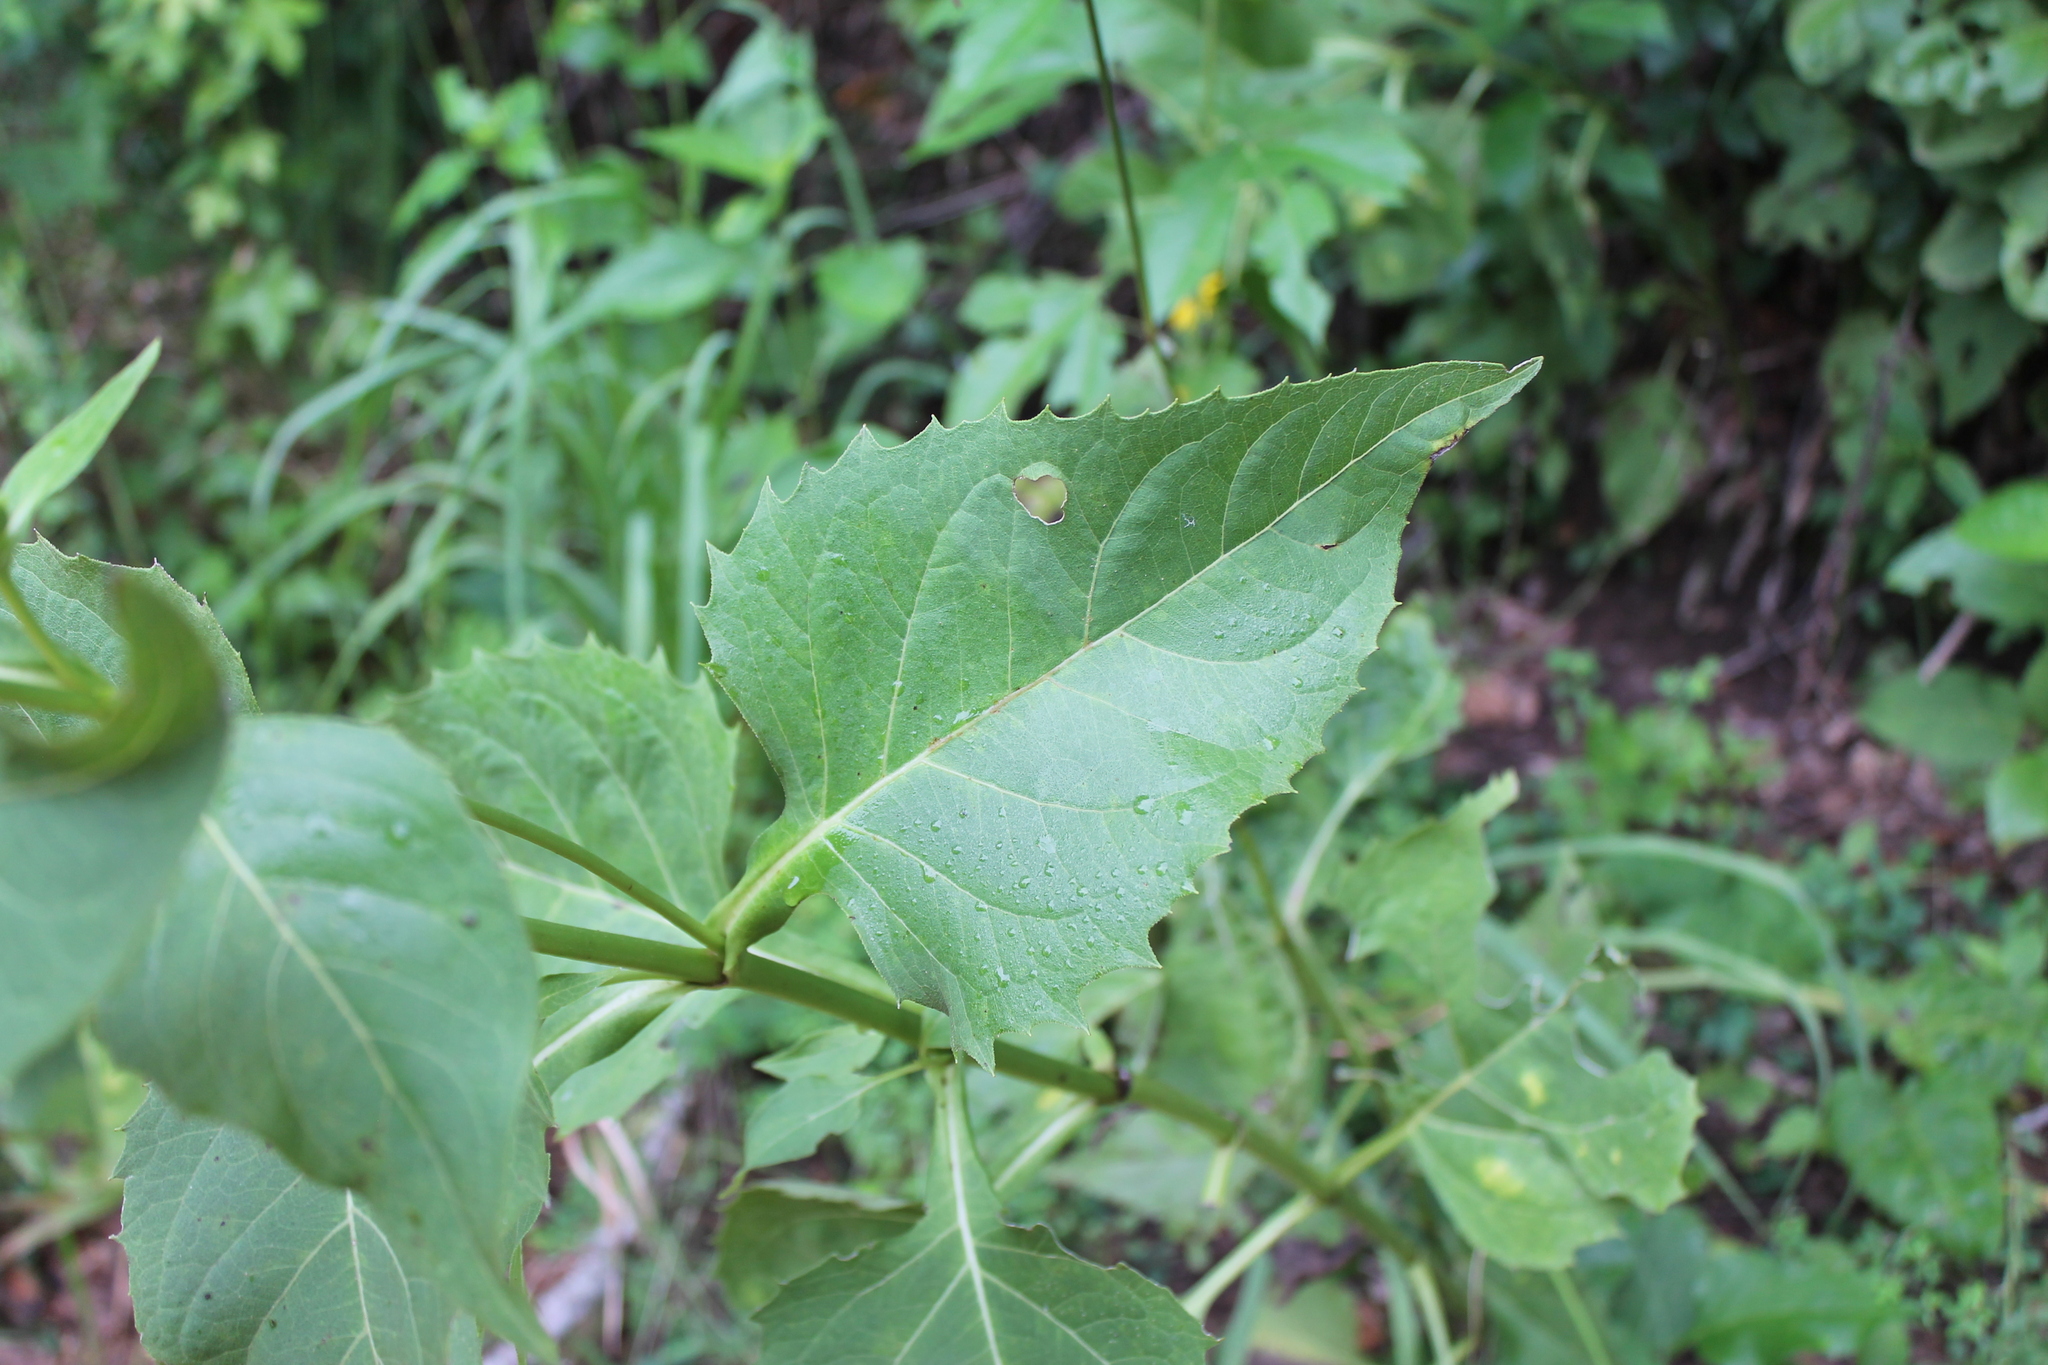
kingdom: Plantae
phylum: Tracheophyta
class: Magnoliopsida
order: Asterales
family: Asteraceae
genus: Silphium
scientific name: Silphium perfoliatum
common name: Cup-plant
